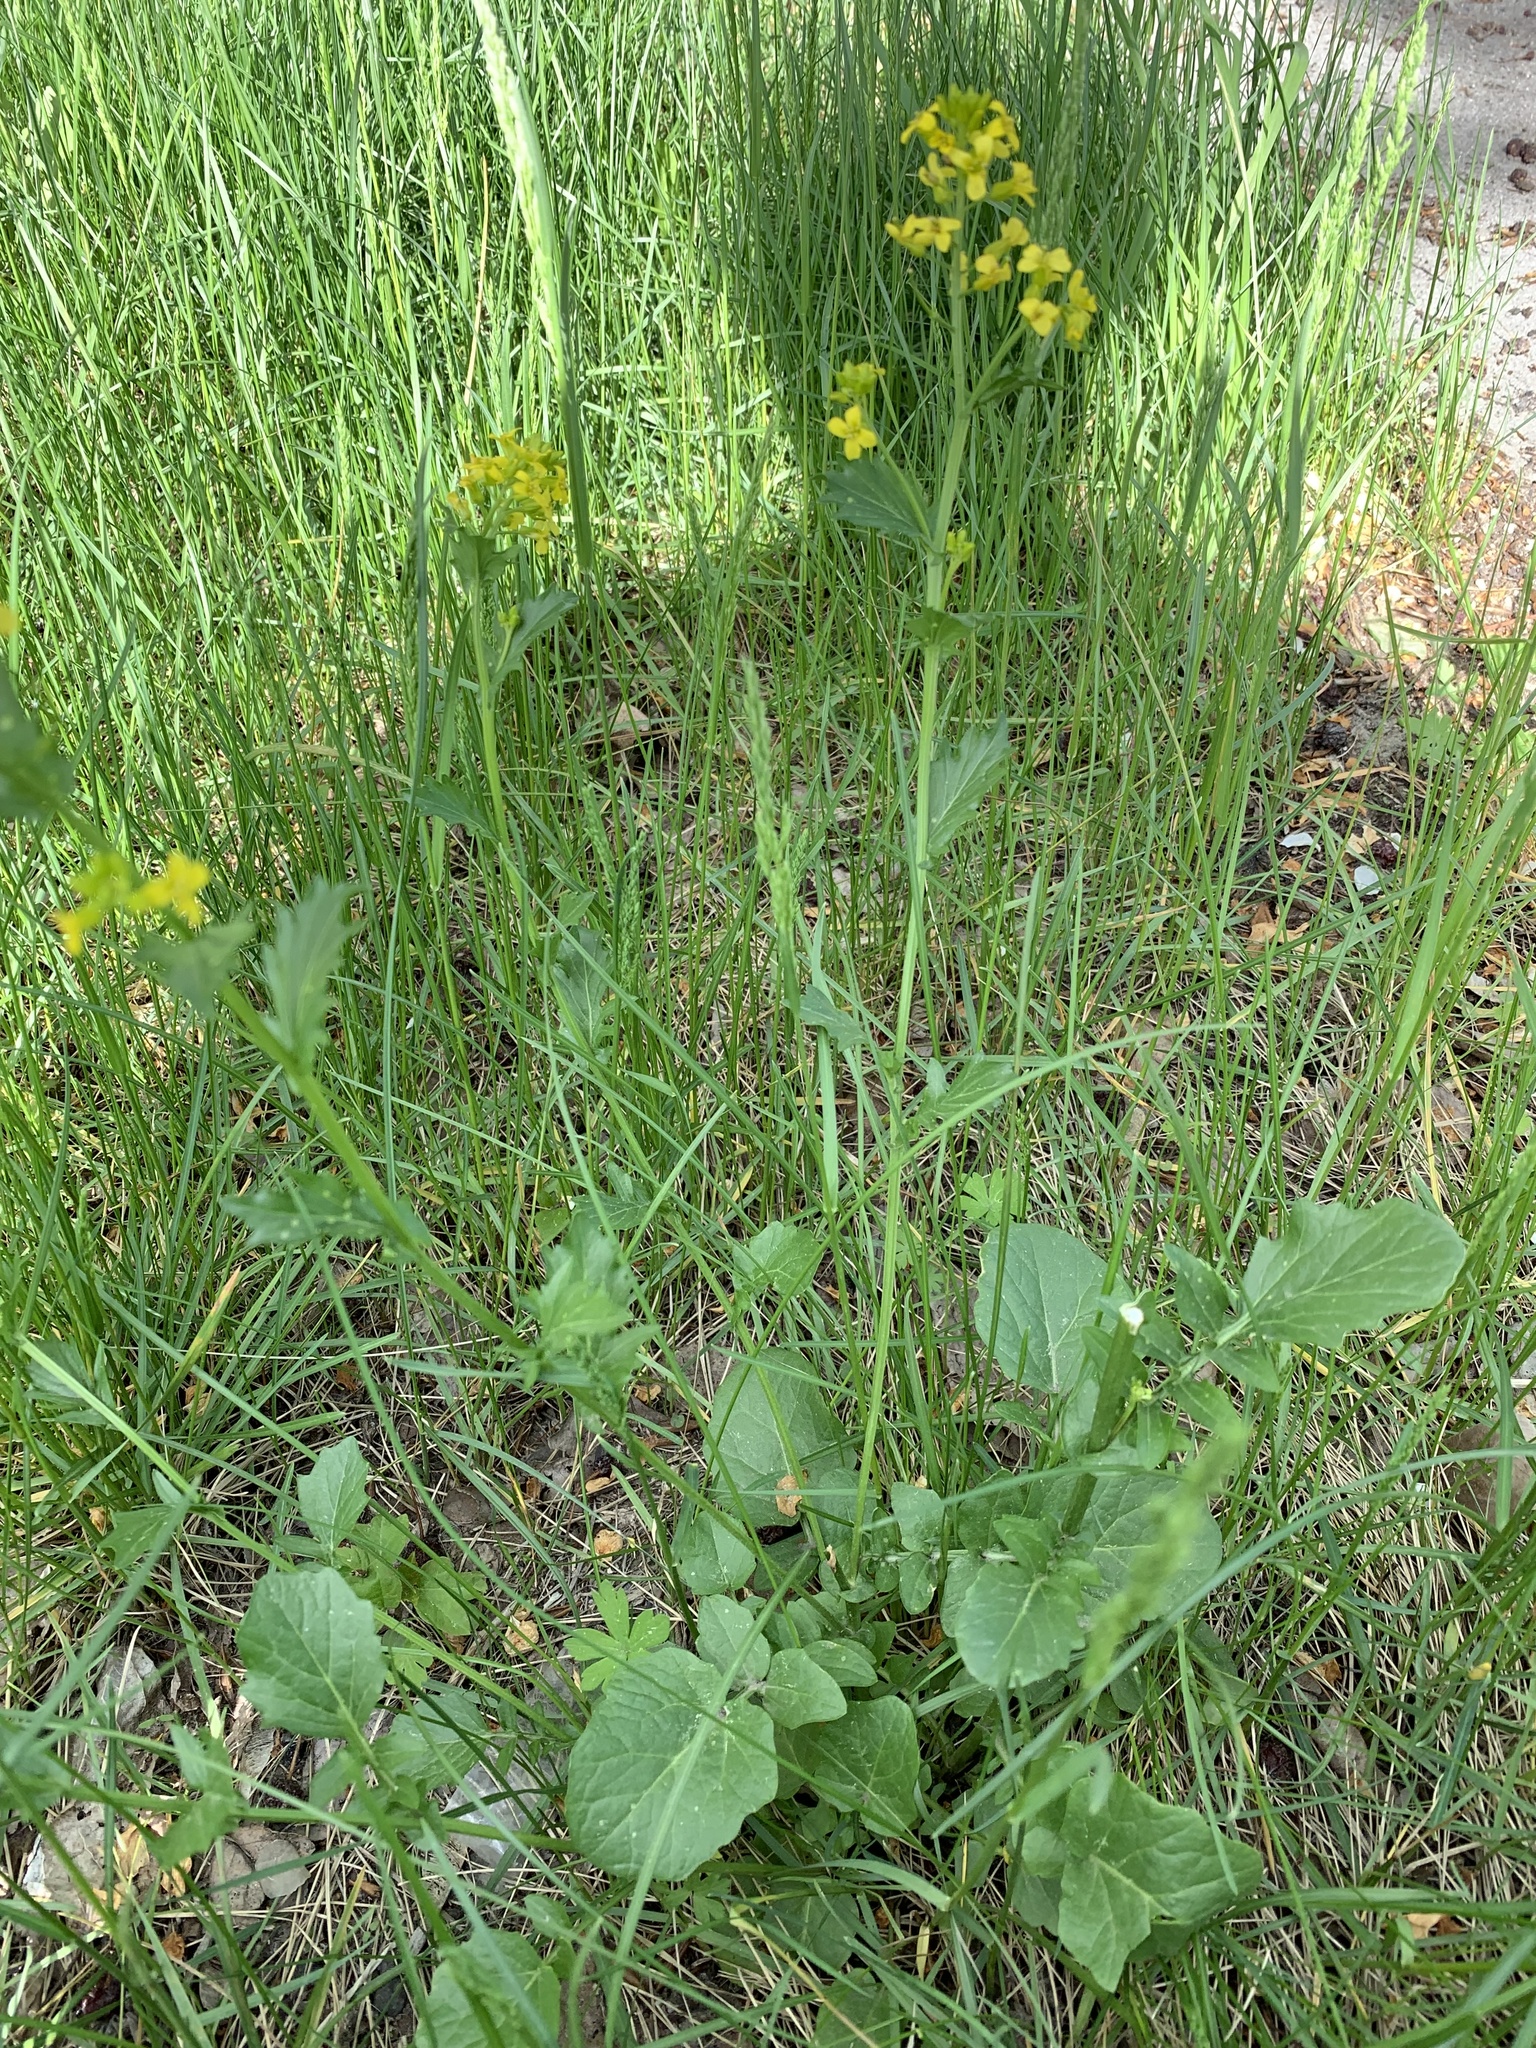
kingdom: Plantae
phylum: Tracheophyta
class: Magnoliopsida
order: Brassicales
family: Brassicaceae
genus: Barbarea
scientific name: Barbarea vulgaris
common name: Cressy-greens
